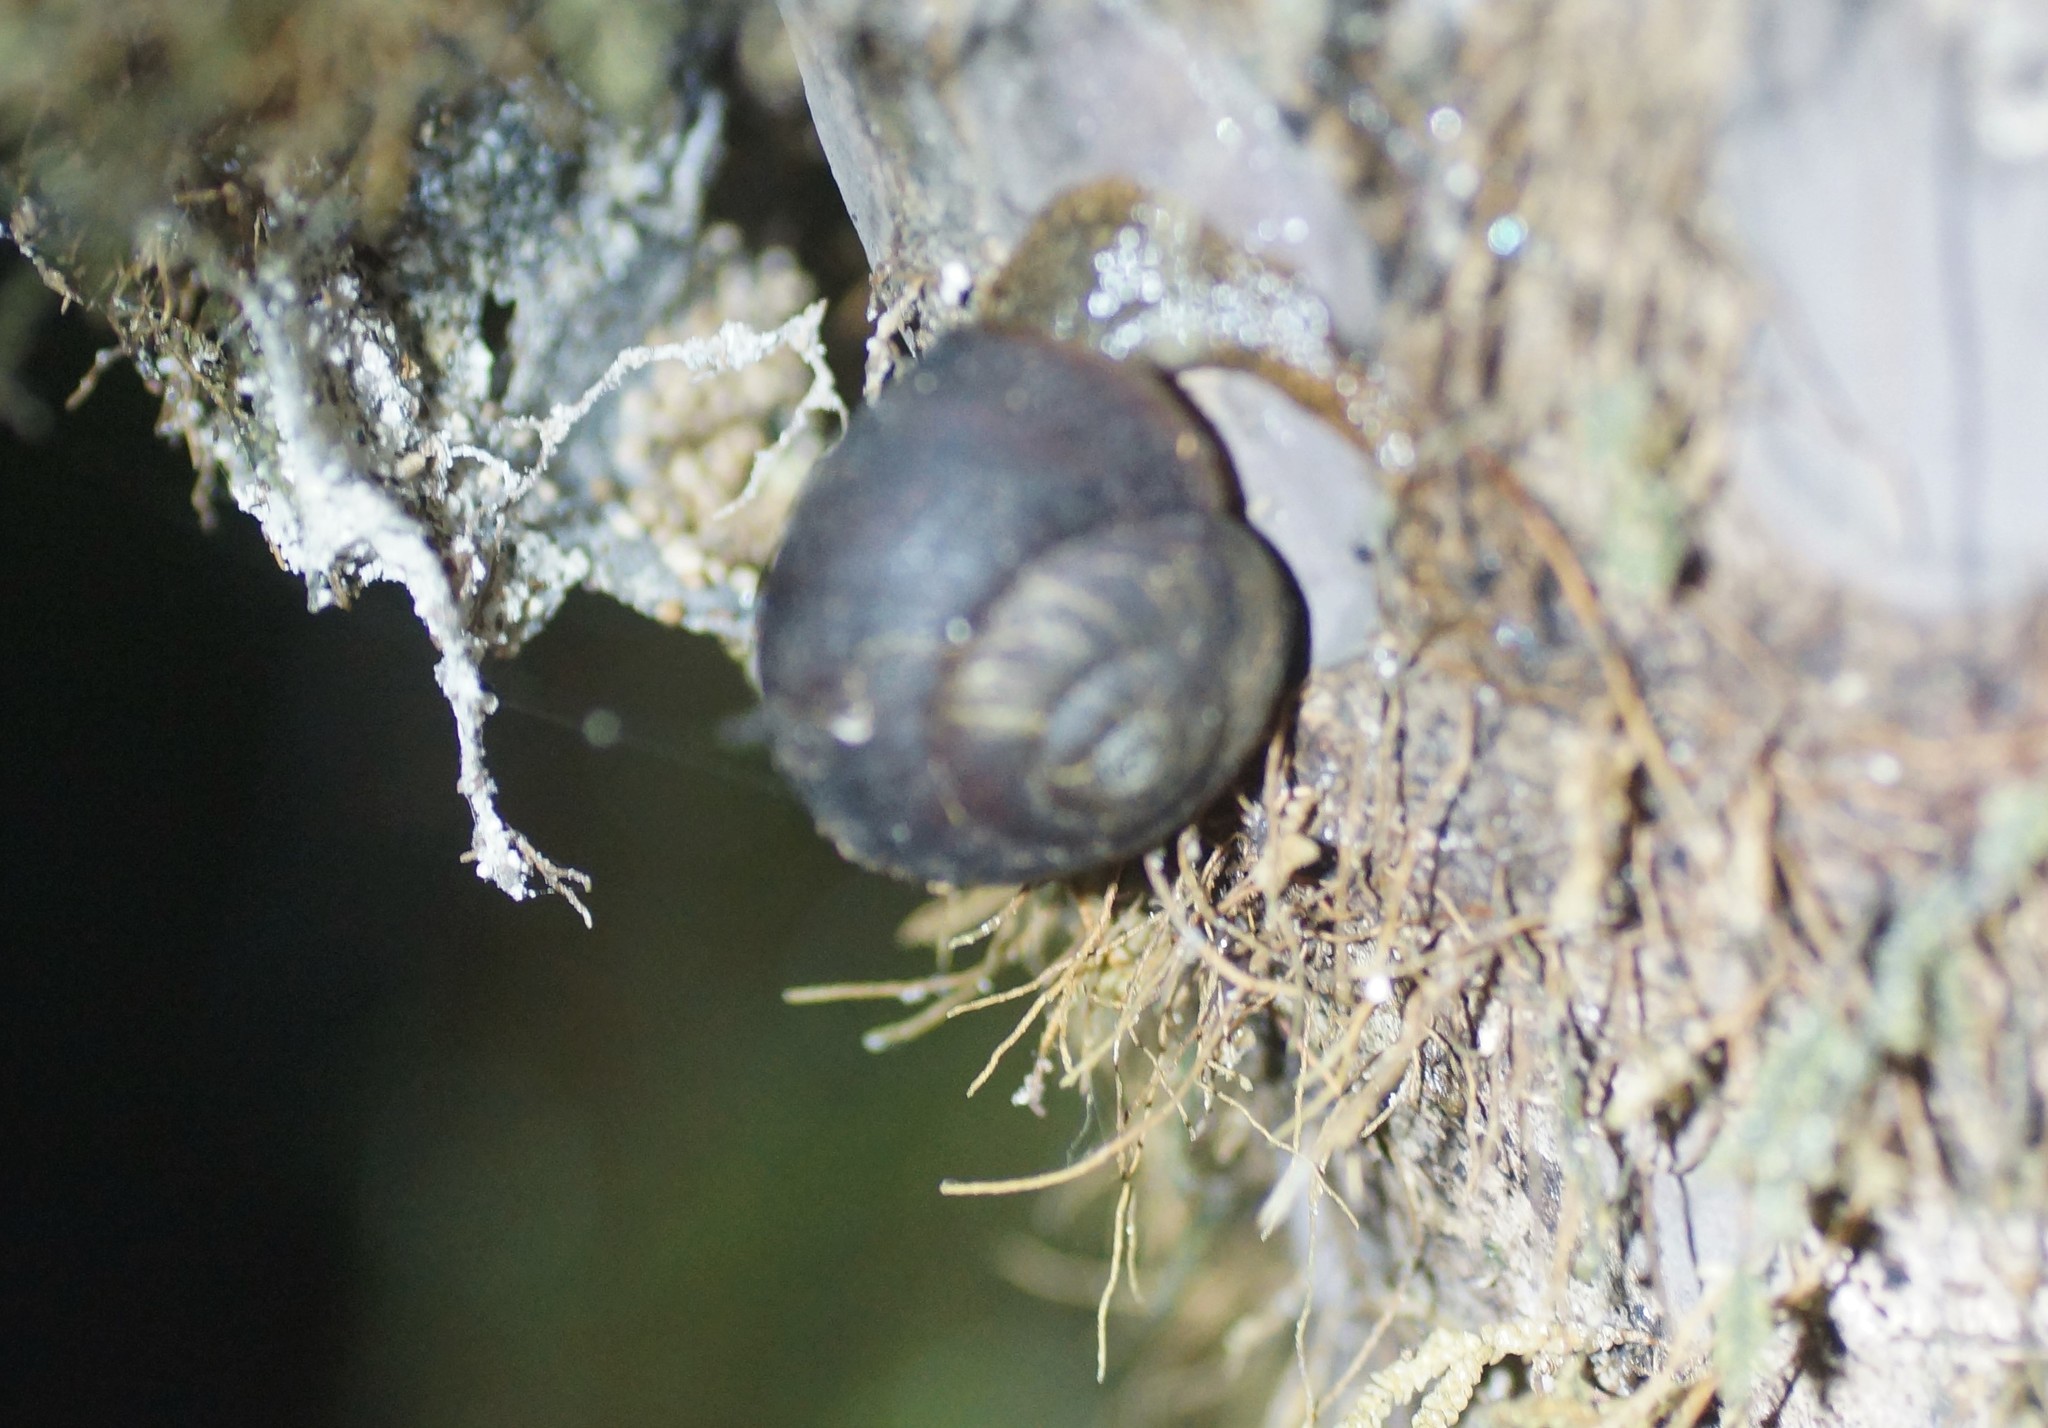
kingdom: Animalia
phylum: Mollusca
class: Gastropoda
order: Stylommatophora
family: Camaenidae
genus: Chloritobadistes
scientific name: Chloritobadistes victoriae
